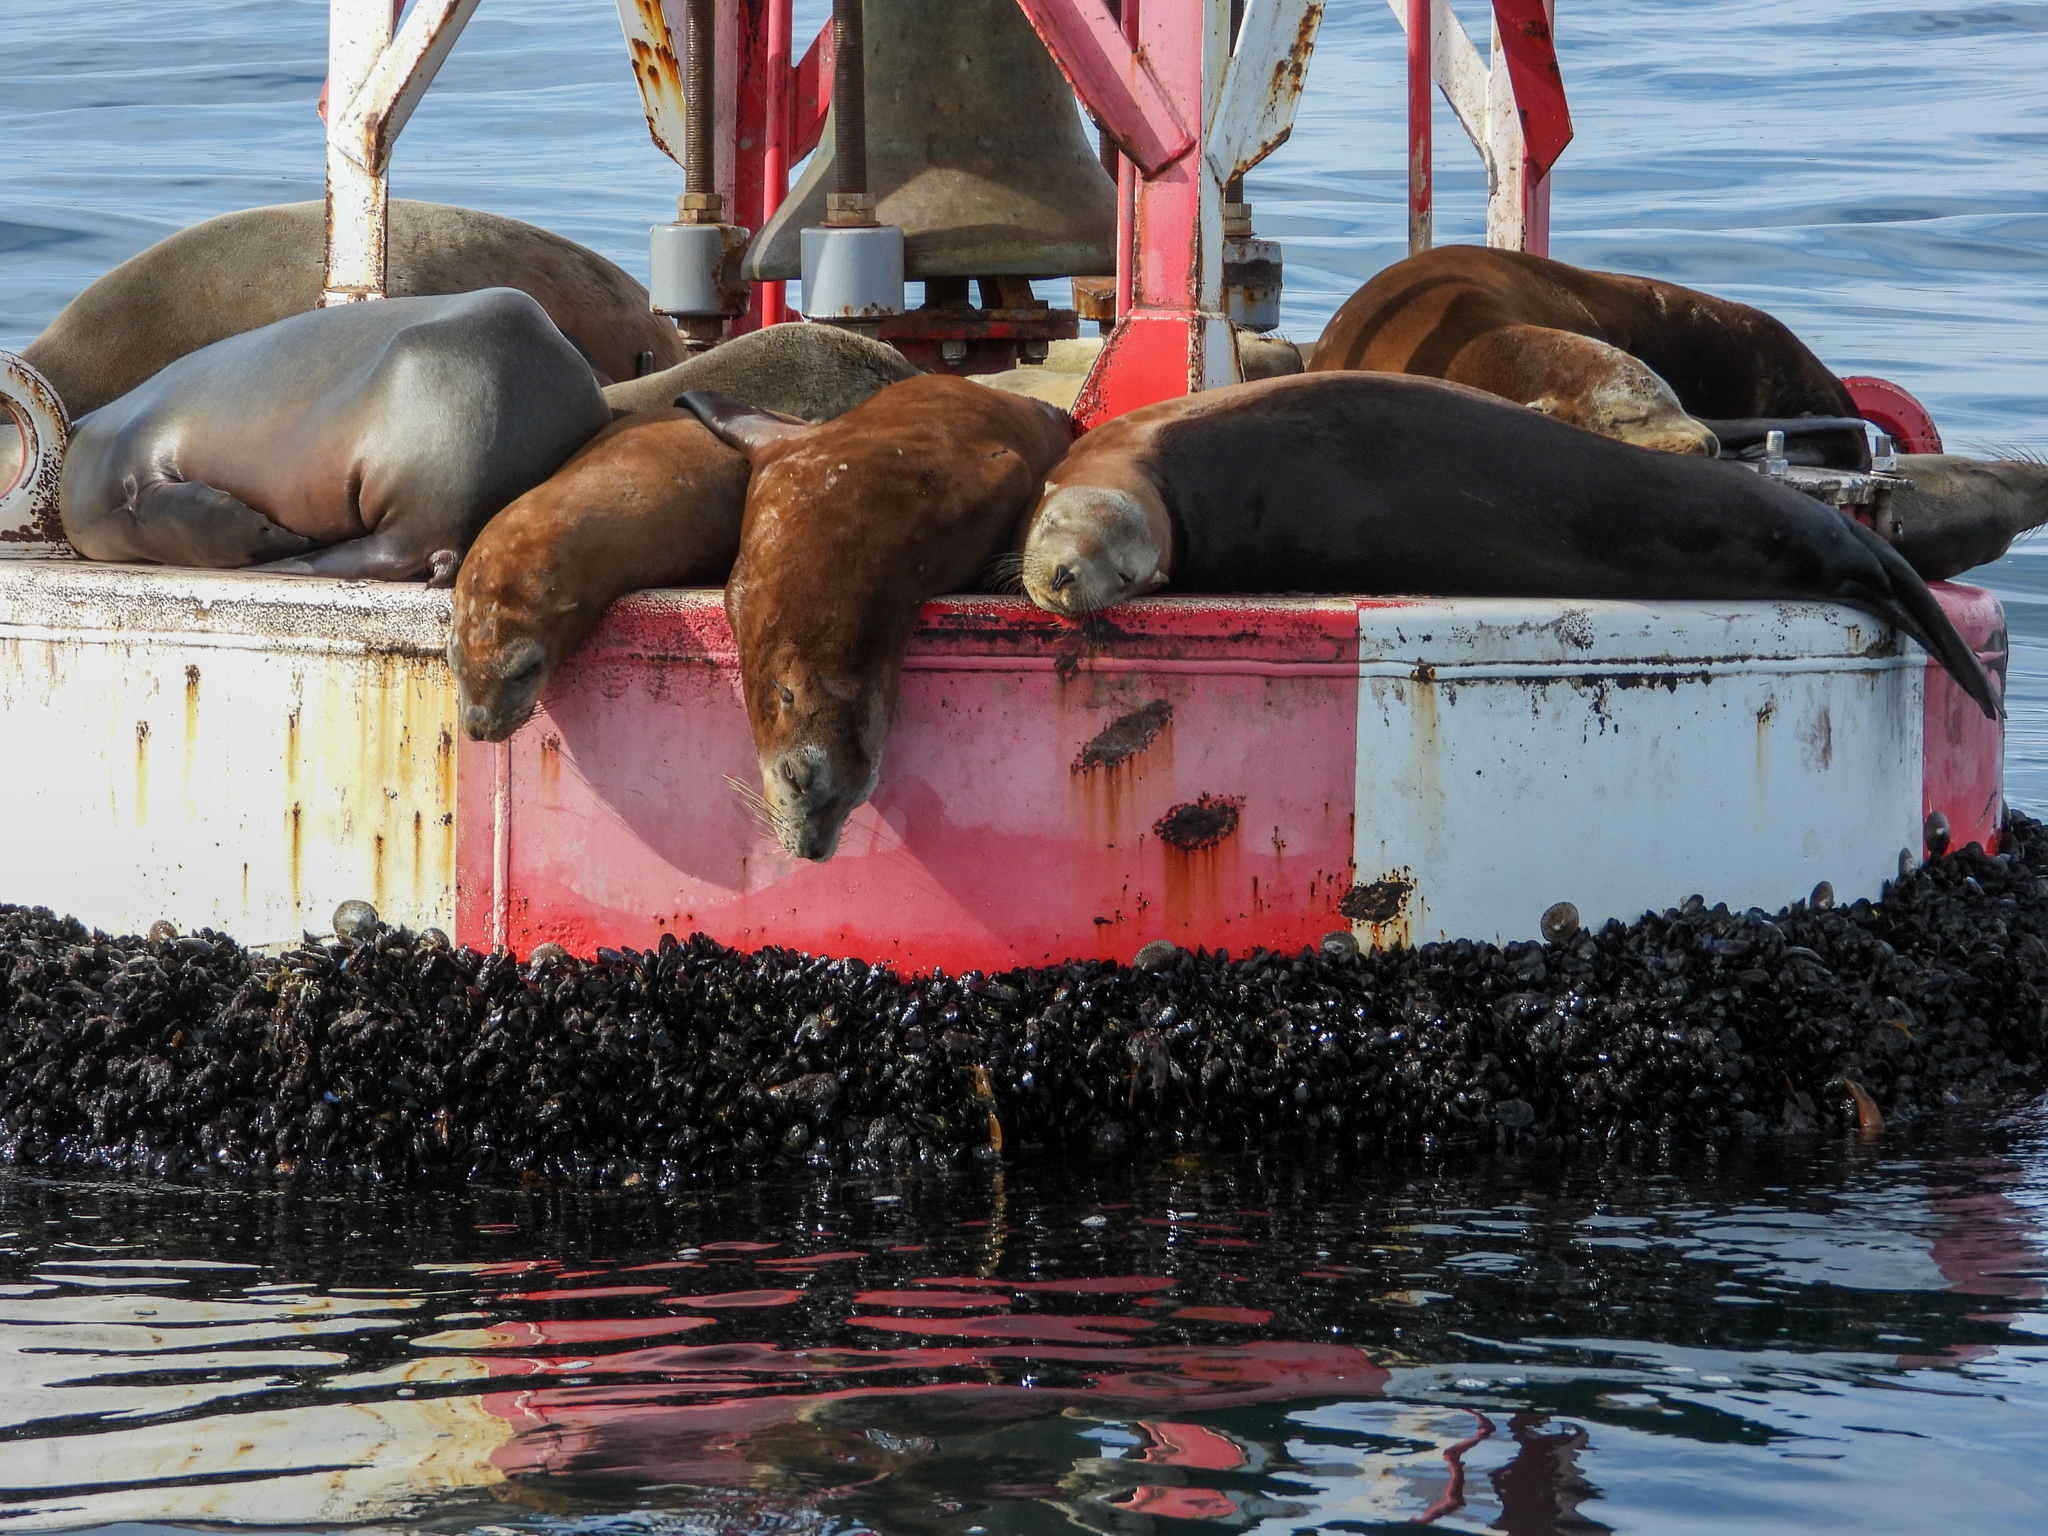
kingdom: Animalia
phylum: Chordata
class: Mammalia
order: Carnivora
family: Otariidae
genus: Zalophus
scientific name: Zalophus californianus
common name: California sea lion
